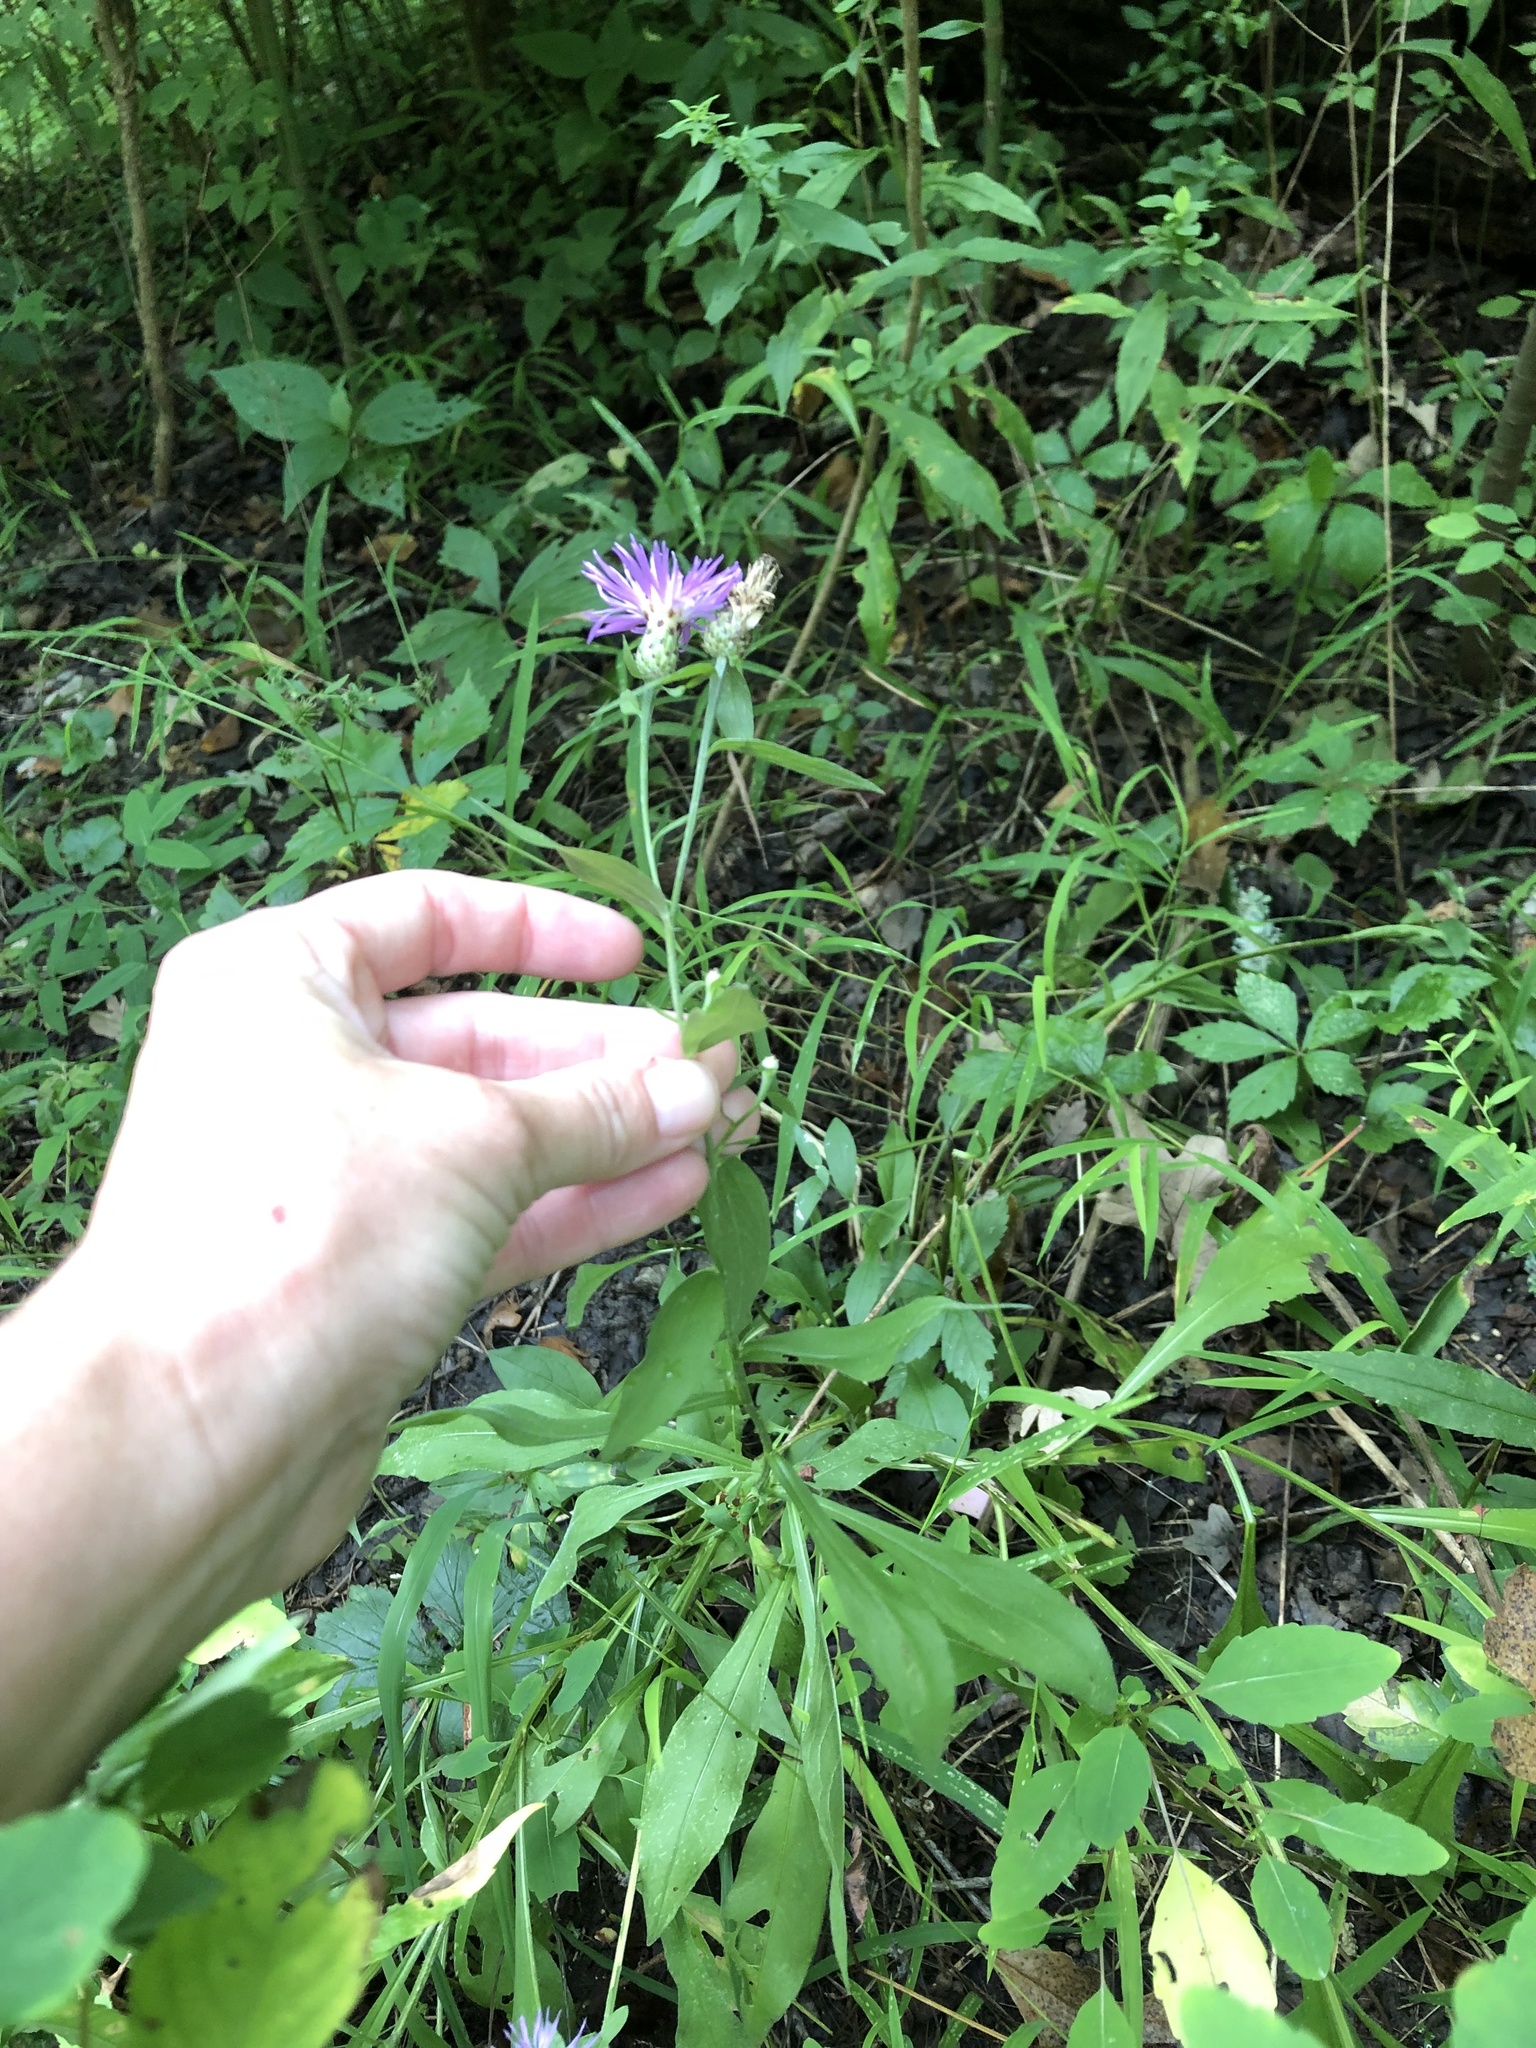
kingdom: Plantae
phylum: Tracheophyta
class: Magnoliopsida
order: Asterales
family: Asteraceae
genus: Centaurea
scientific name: Centaurea nigrescens
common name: Tyrol knapweed
